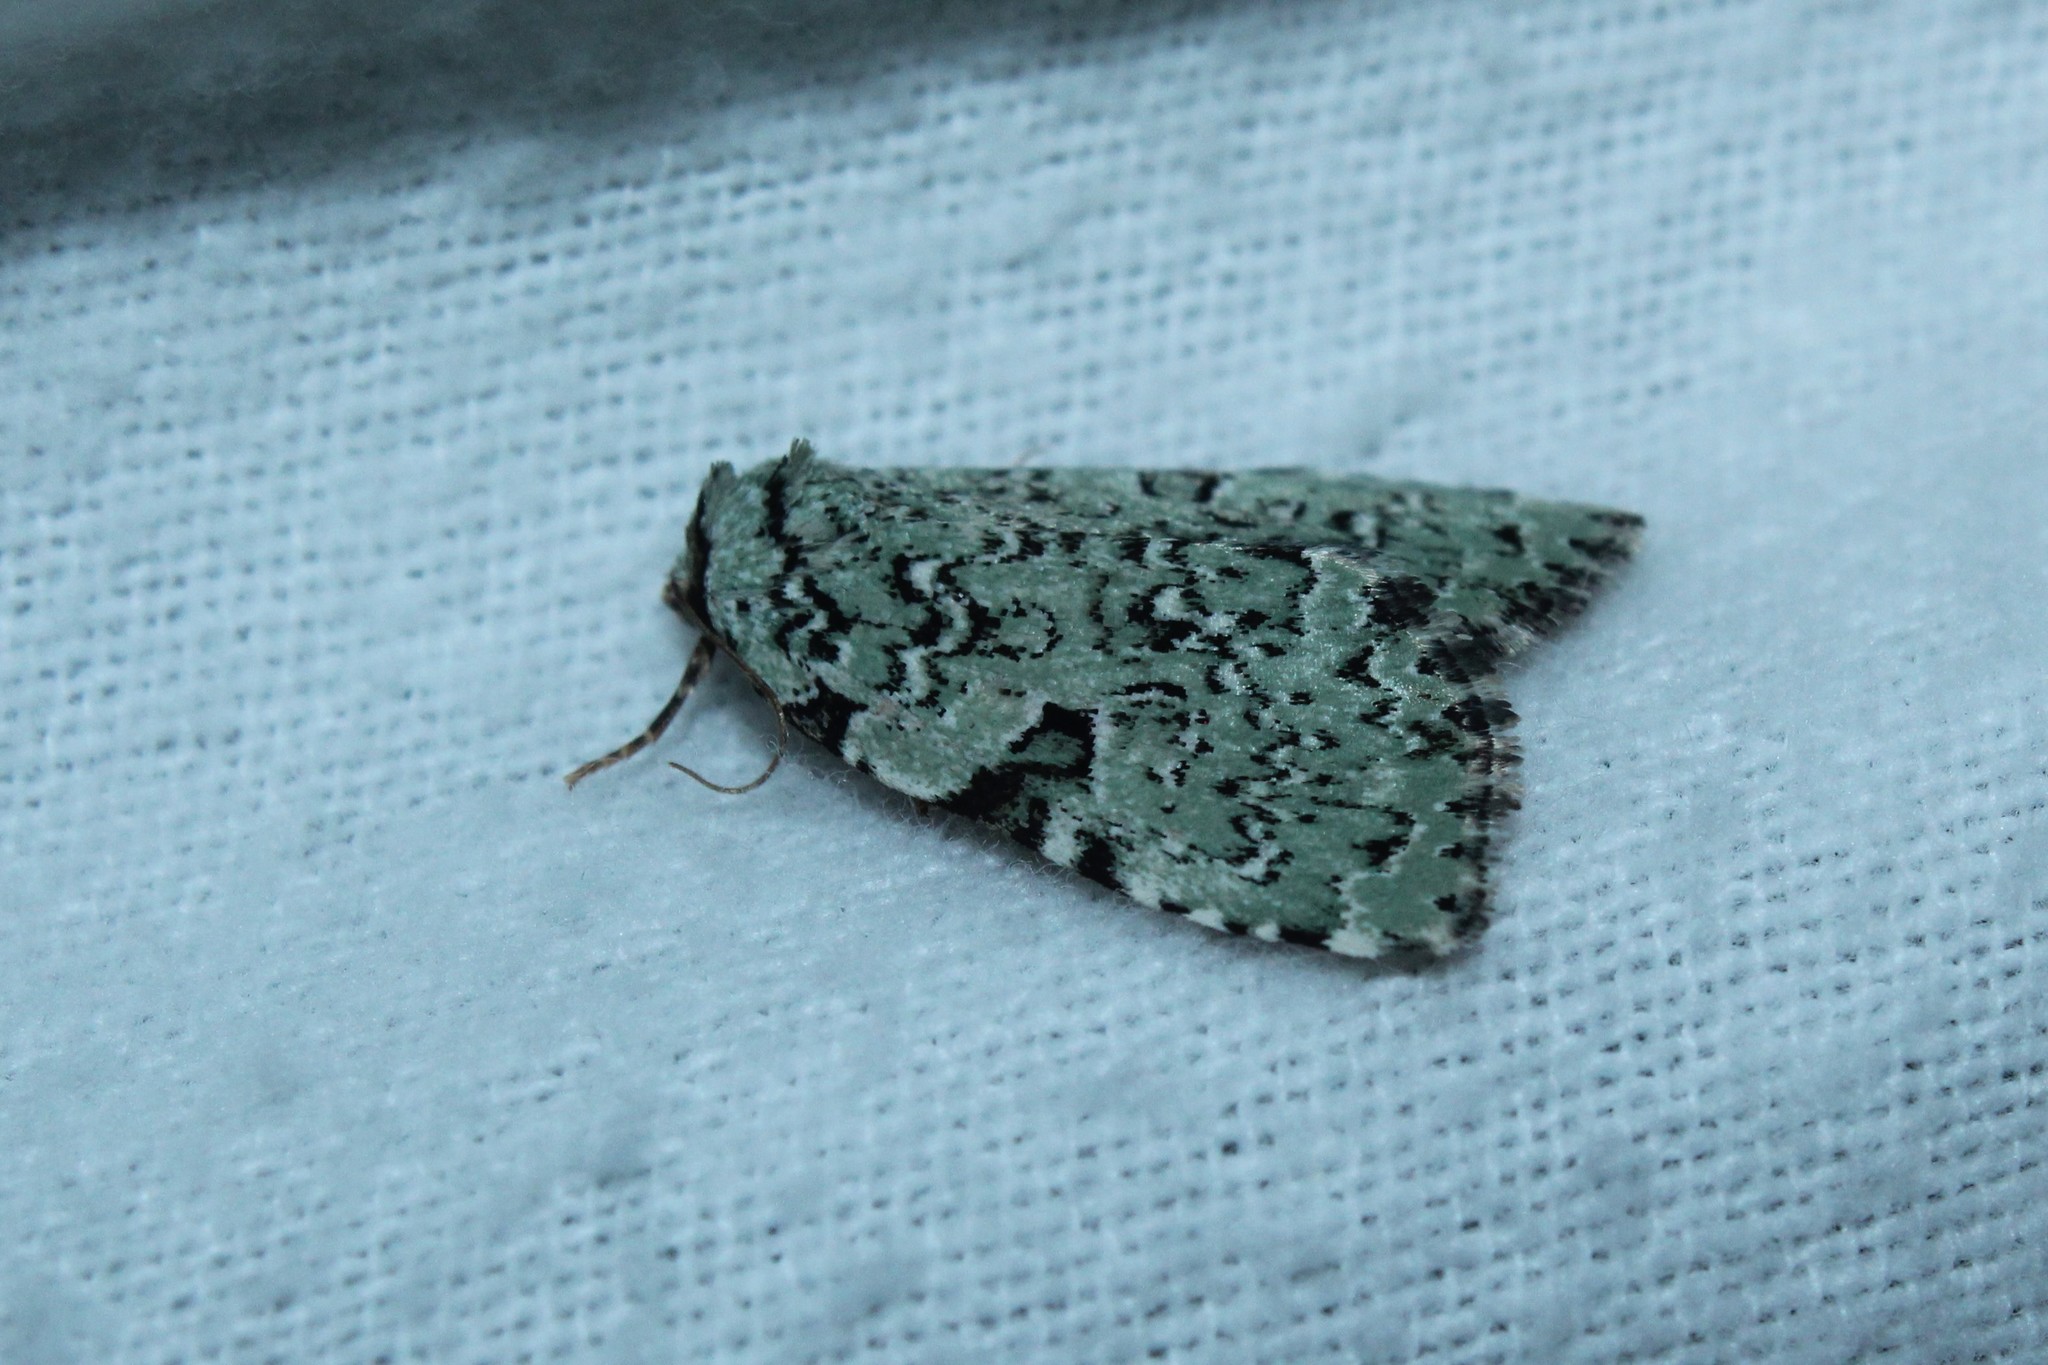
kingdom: Animalia
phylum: Arthropoda
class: Insecta
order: Lepidoptera
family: Noctuidae
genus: Leuconycta
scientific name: Leuconycta diphteroides
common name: Green leuconycta moth
